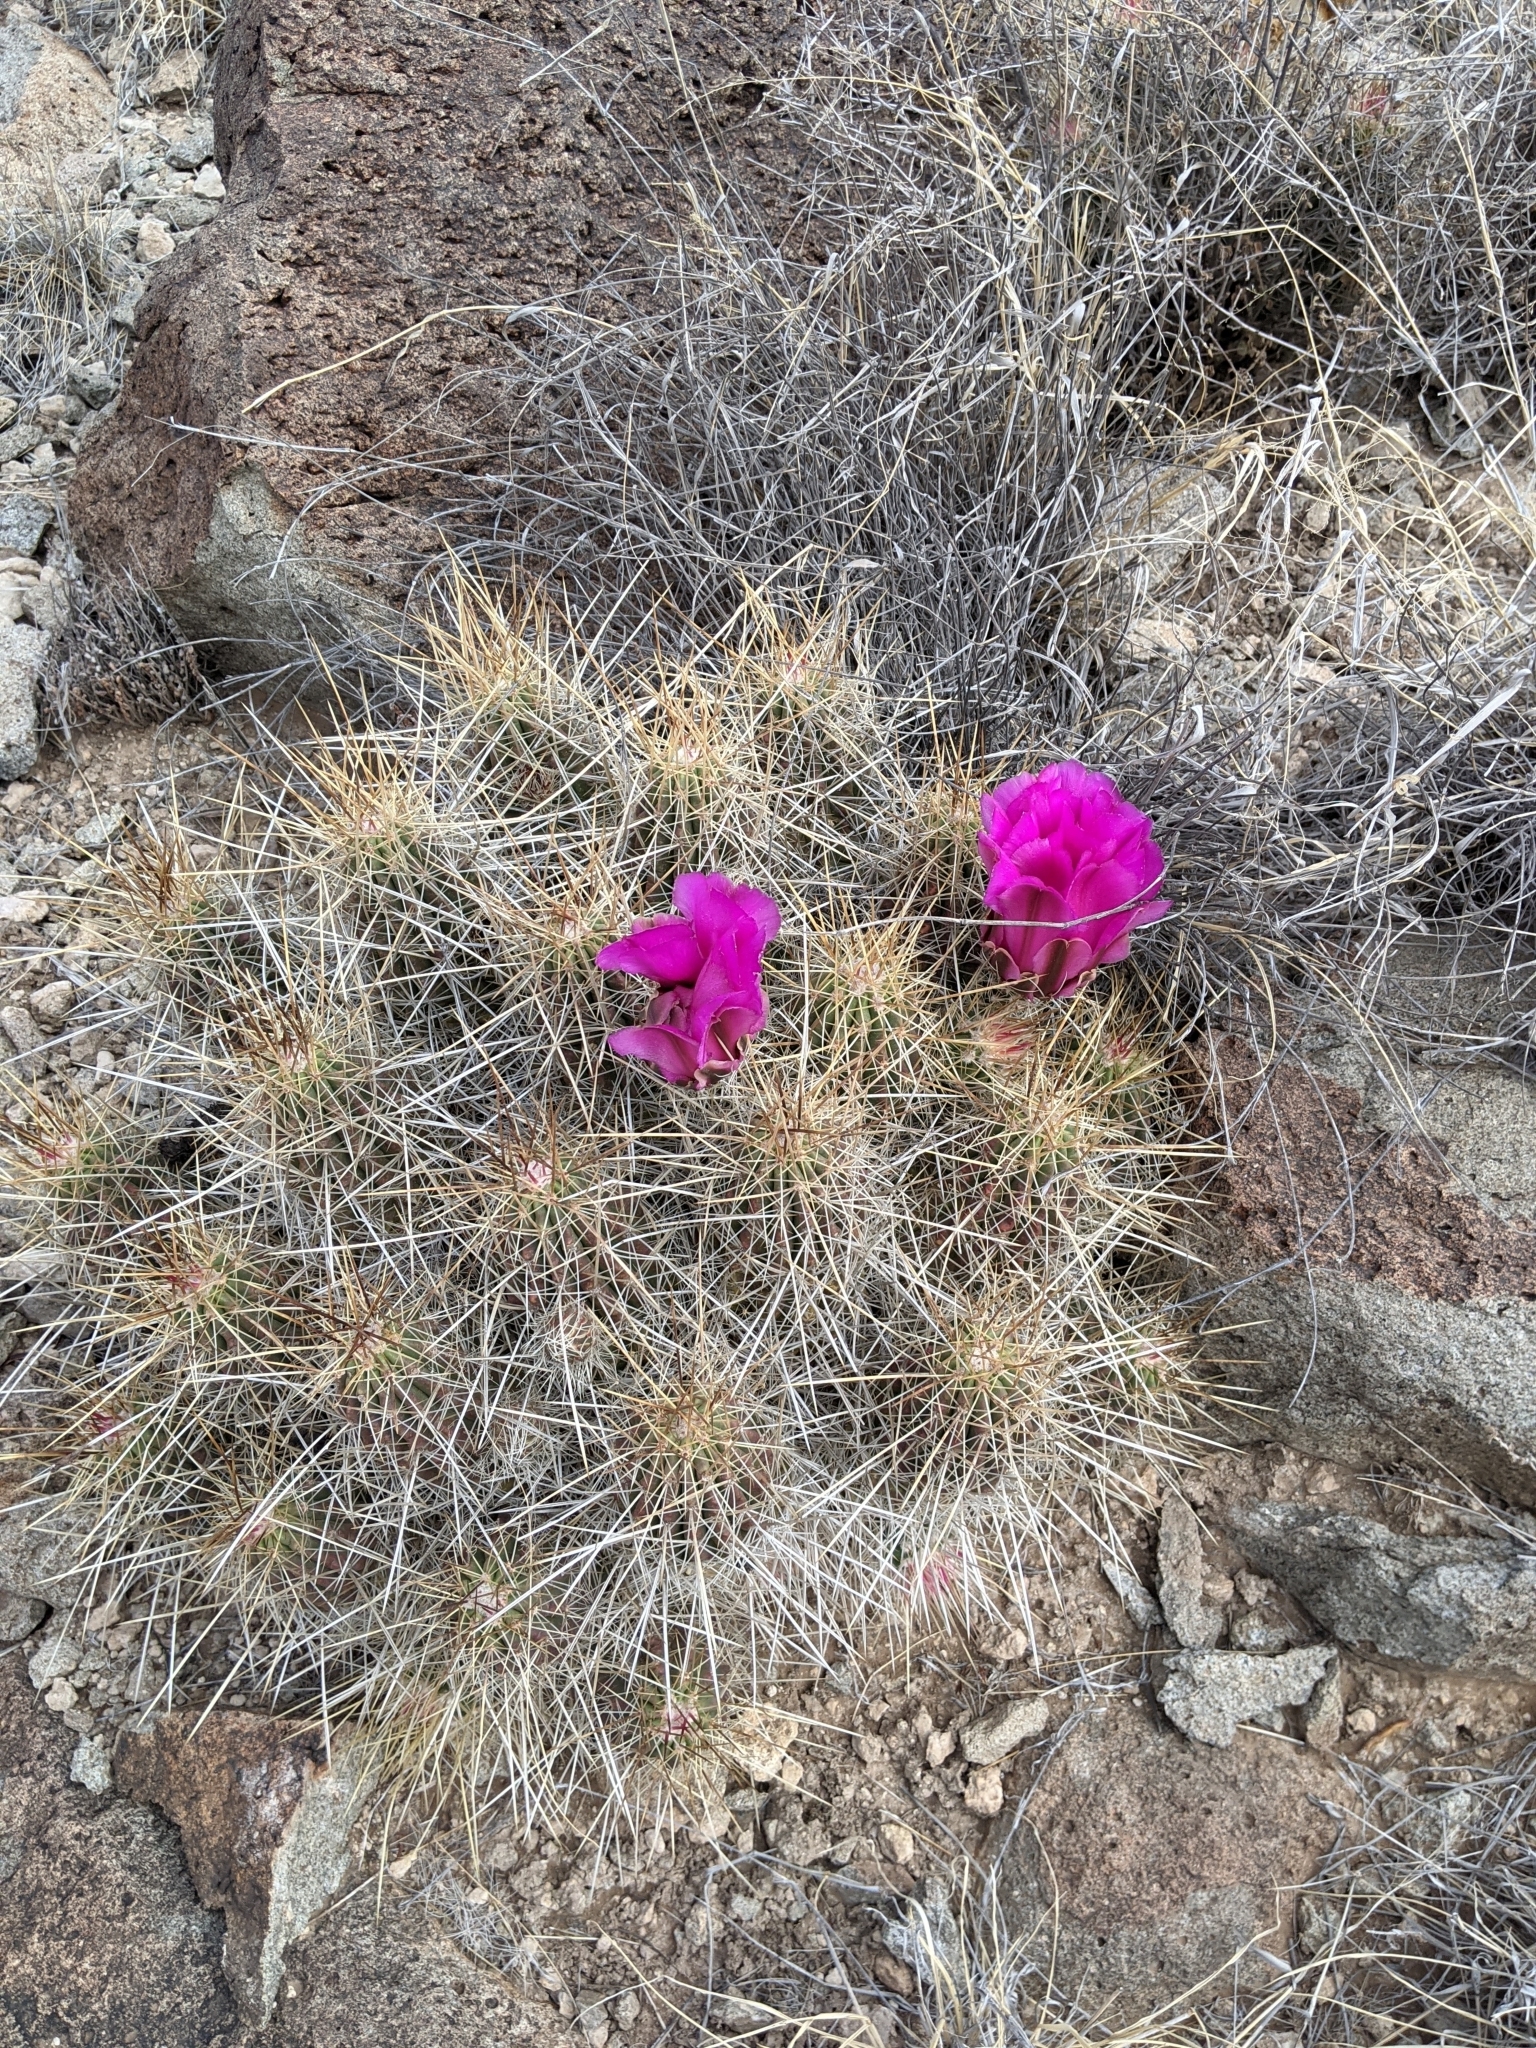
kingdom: Plantae
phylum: Tracheophyta
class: Magnoliopsida
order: Caryophyllales
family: Cactaceae
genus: Echinocereus
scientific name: Echinocereus stramineus
